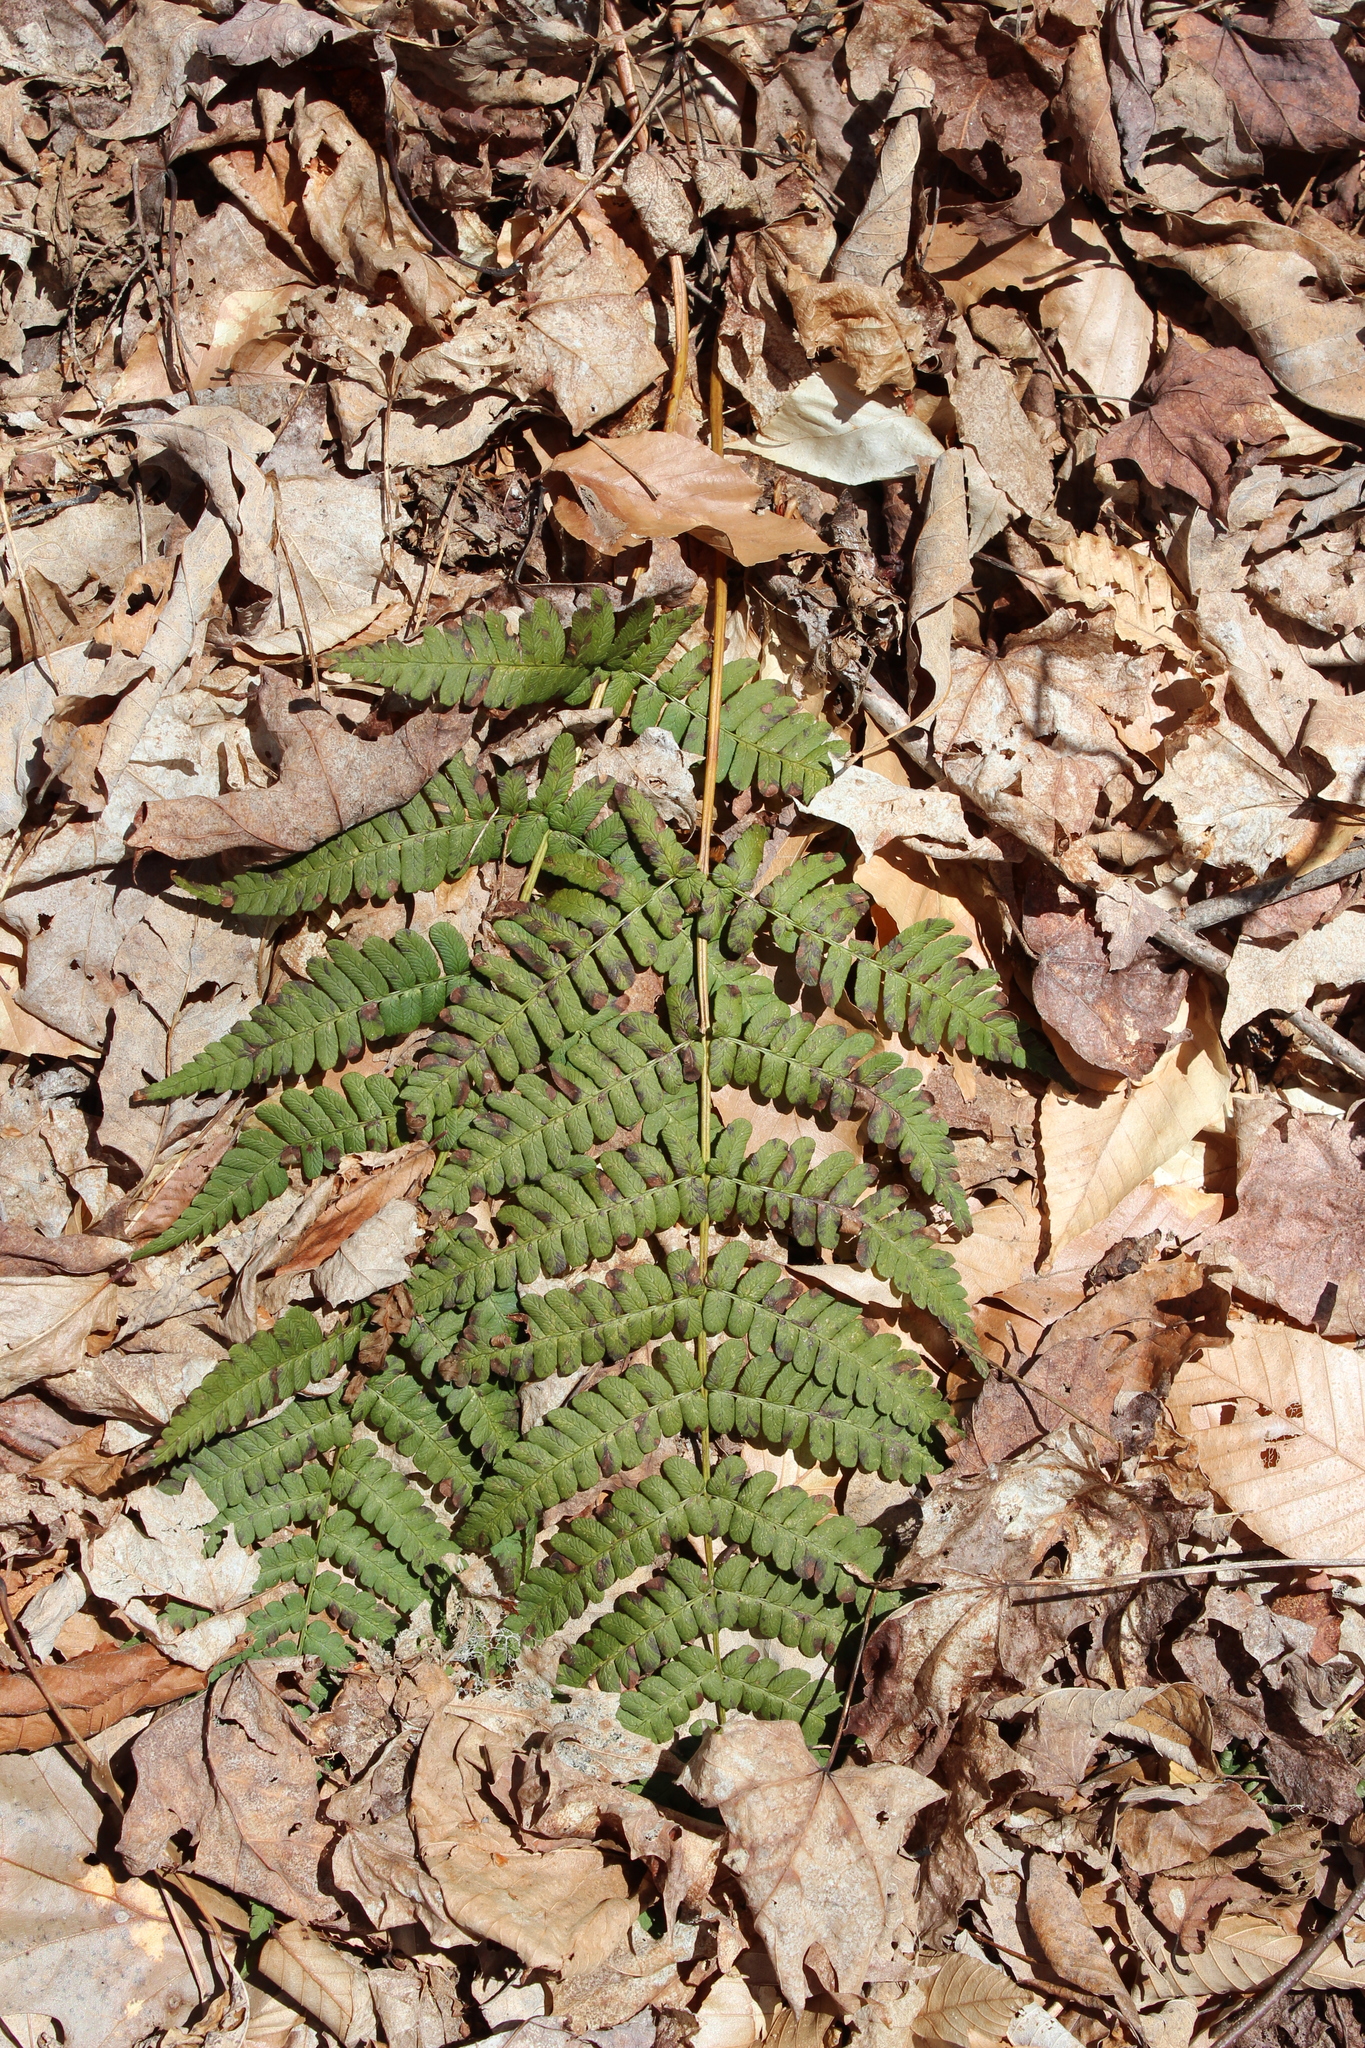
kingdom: Plantae
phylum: Tracheophyta
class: Polypodiopsida
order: Polypodiales
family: Dryopteridaceae
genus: Dryopteris
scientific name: Dryopteris marginalis
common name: Marginal wood fern
